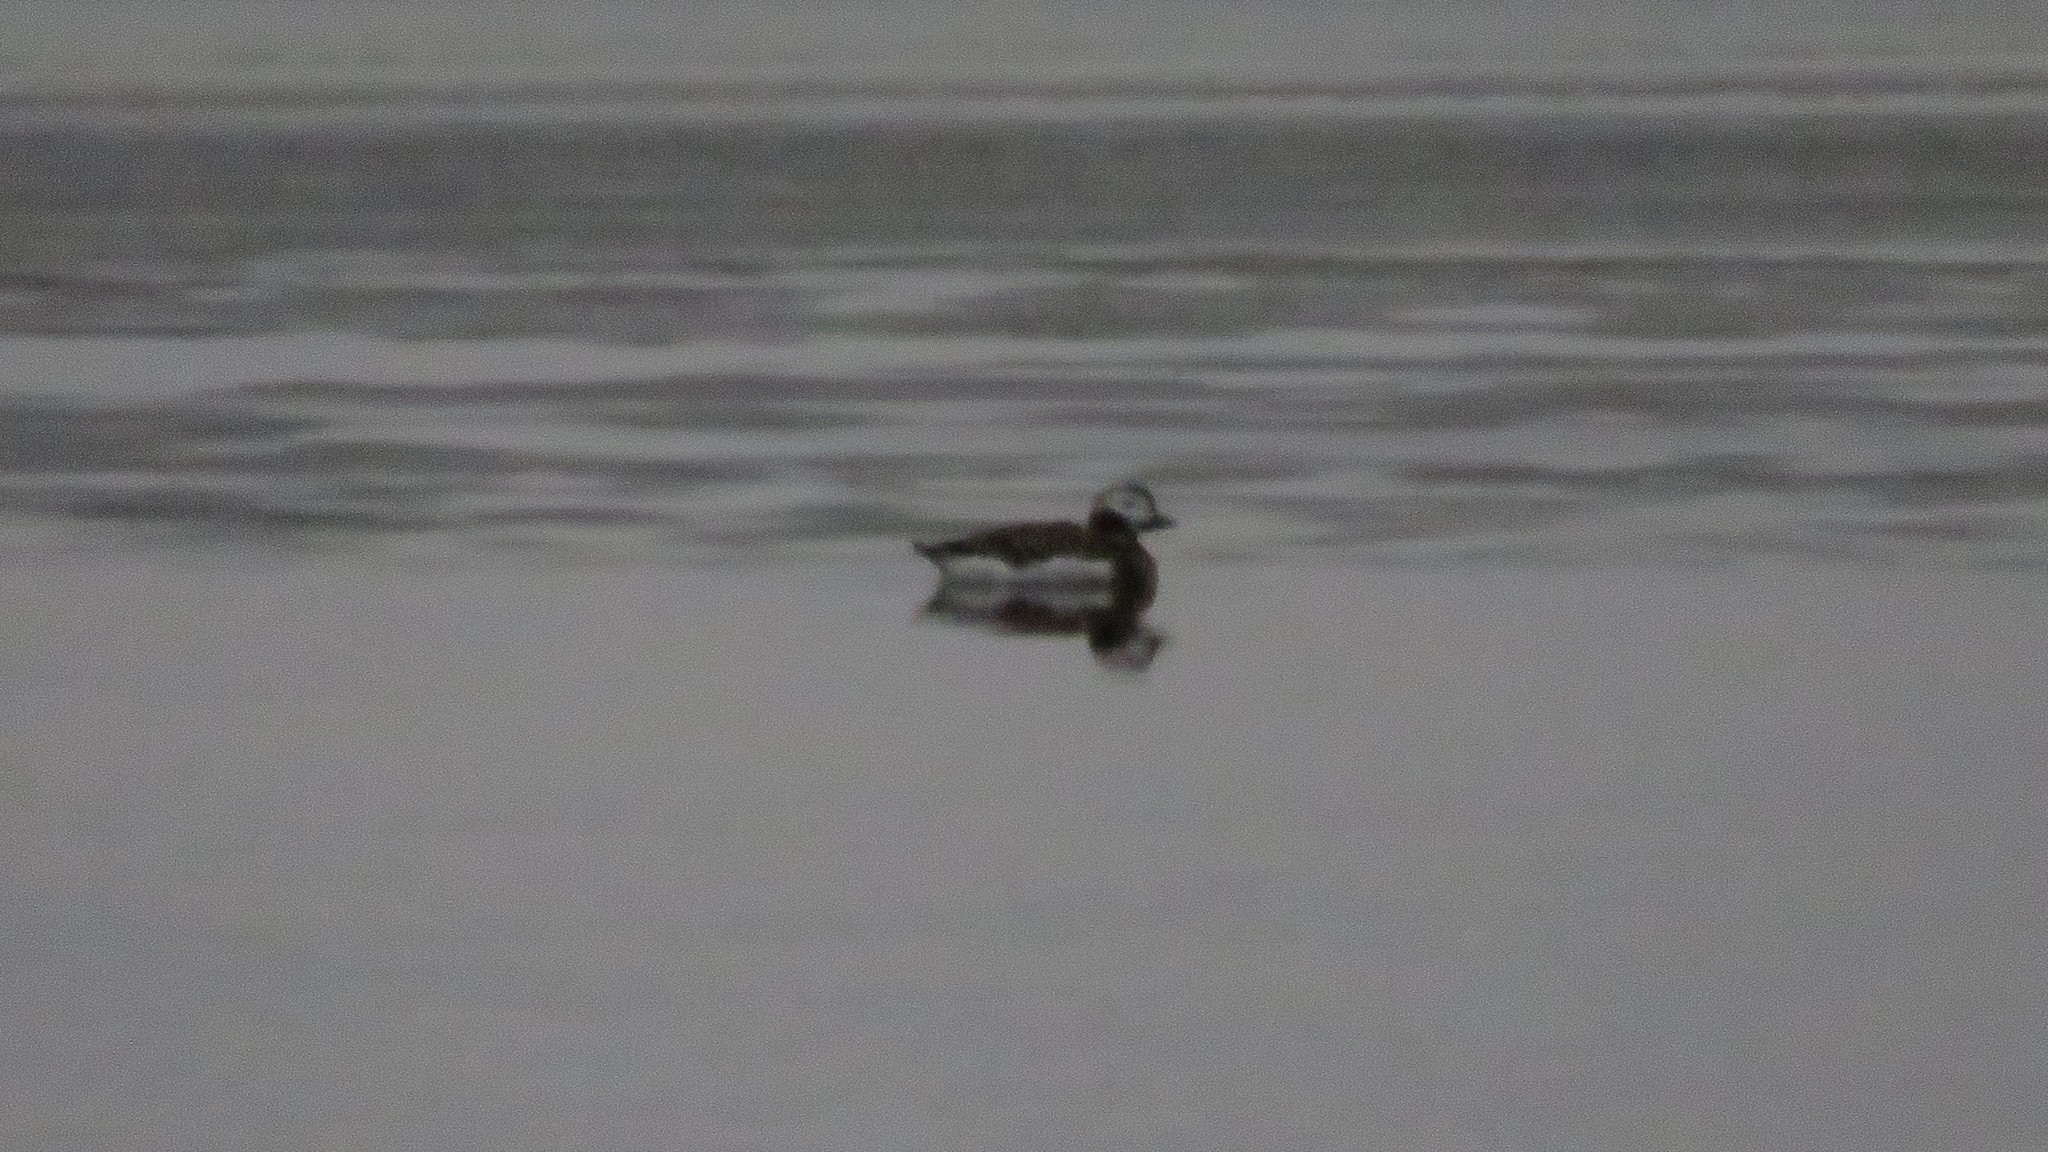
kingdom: Animalia
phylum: Chordata
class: Aves
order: Anseriformes
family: Anatidae
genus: Clangula
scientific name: Clangula hyemalis
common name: Long-tailed duck
